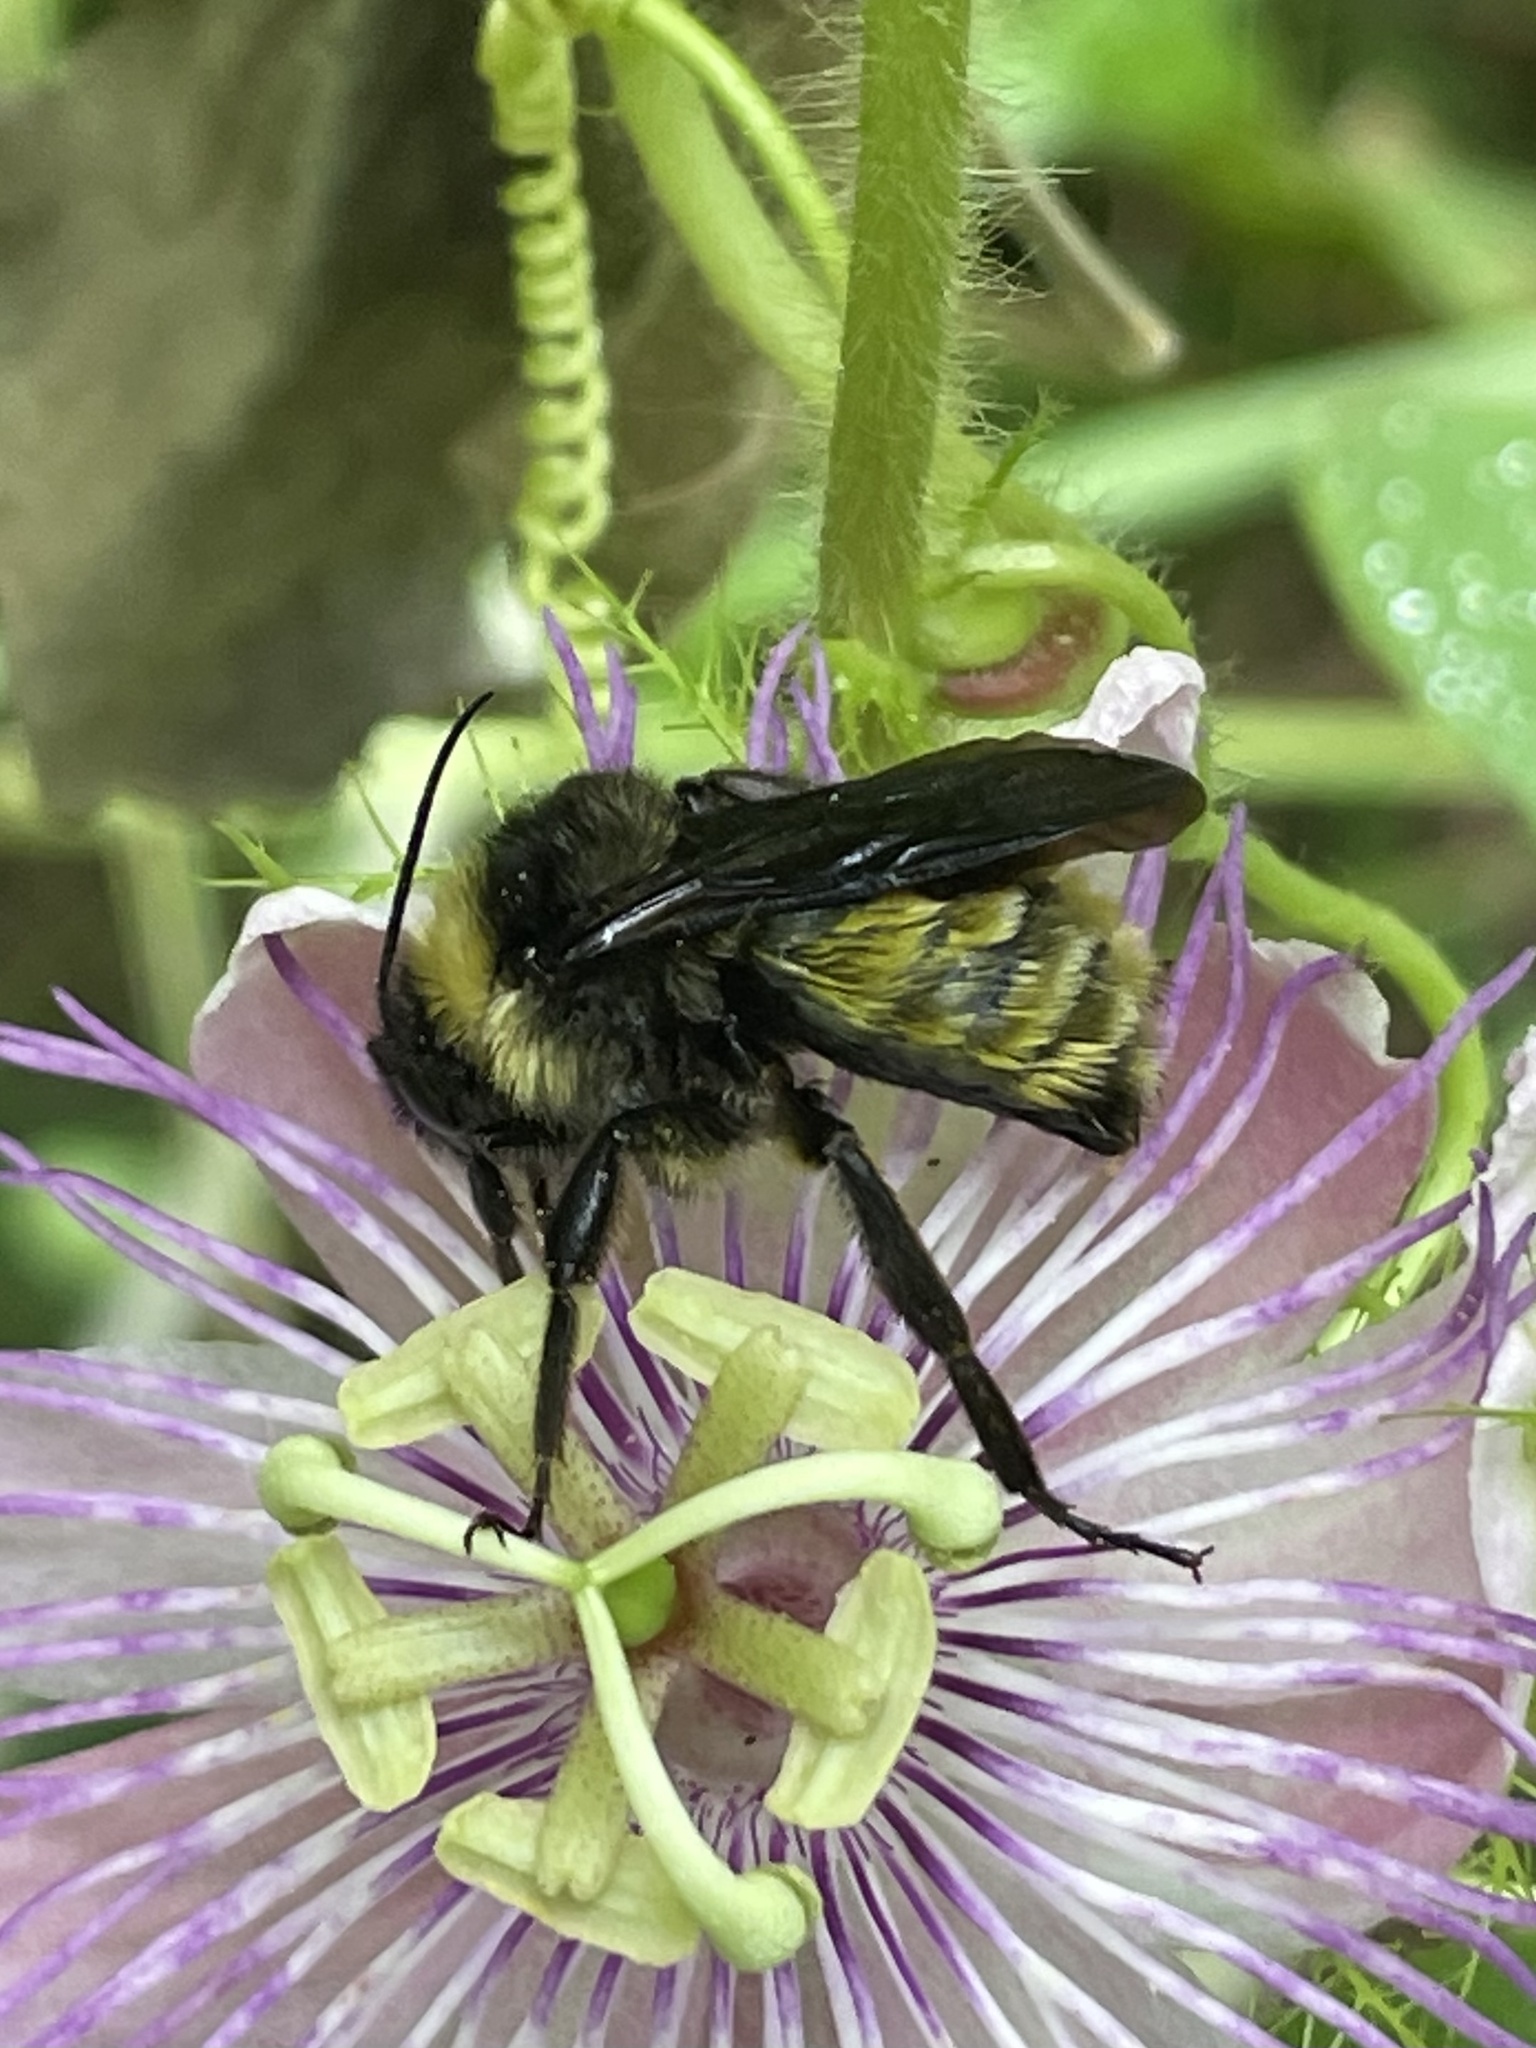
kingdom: Animalia
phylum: Arthropoda
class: Insecta
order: Hymenoptera
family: Apidae
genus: Bombus
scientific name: Bombus pensylvanicus
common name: Bumble bee
